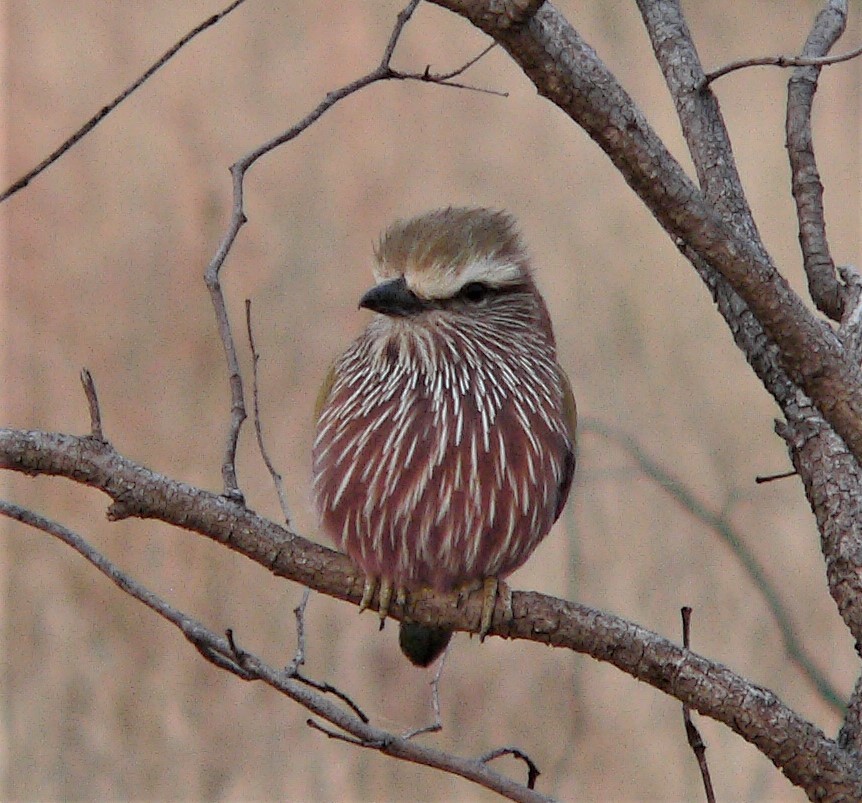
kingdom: Animalia
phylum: Chordata
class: Aves
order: Coraciiformes
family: Coraciidae
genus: Coracias
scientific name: Coracias naevius
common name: Purple roller
